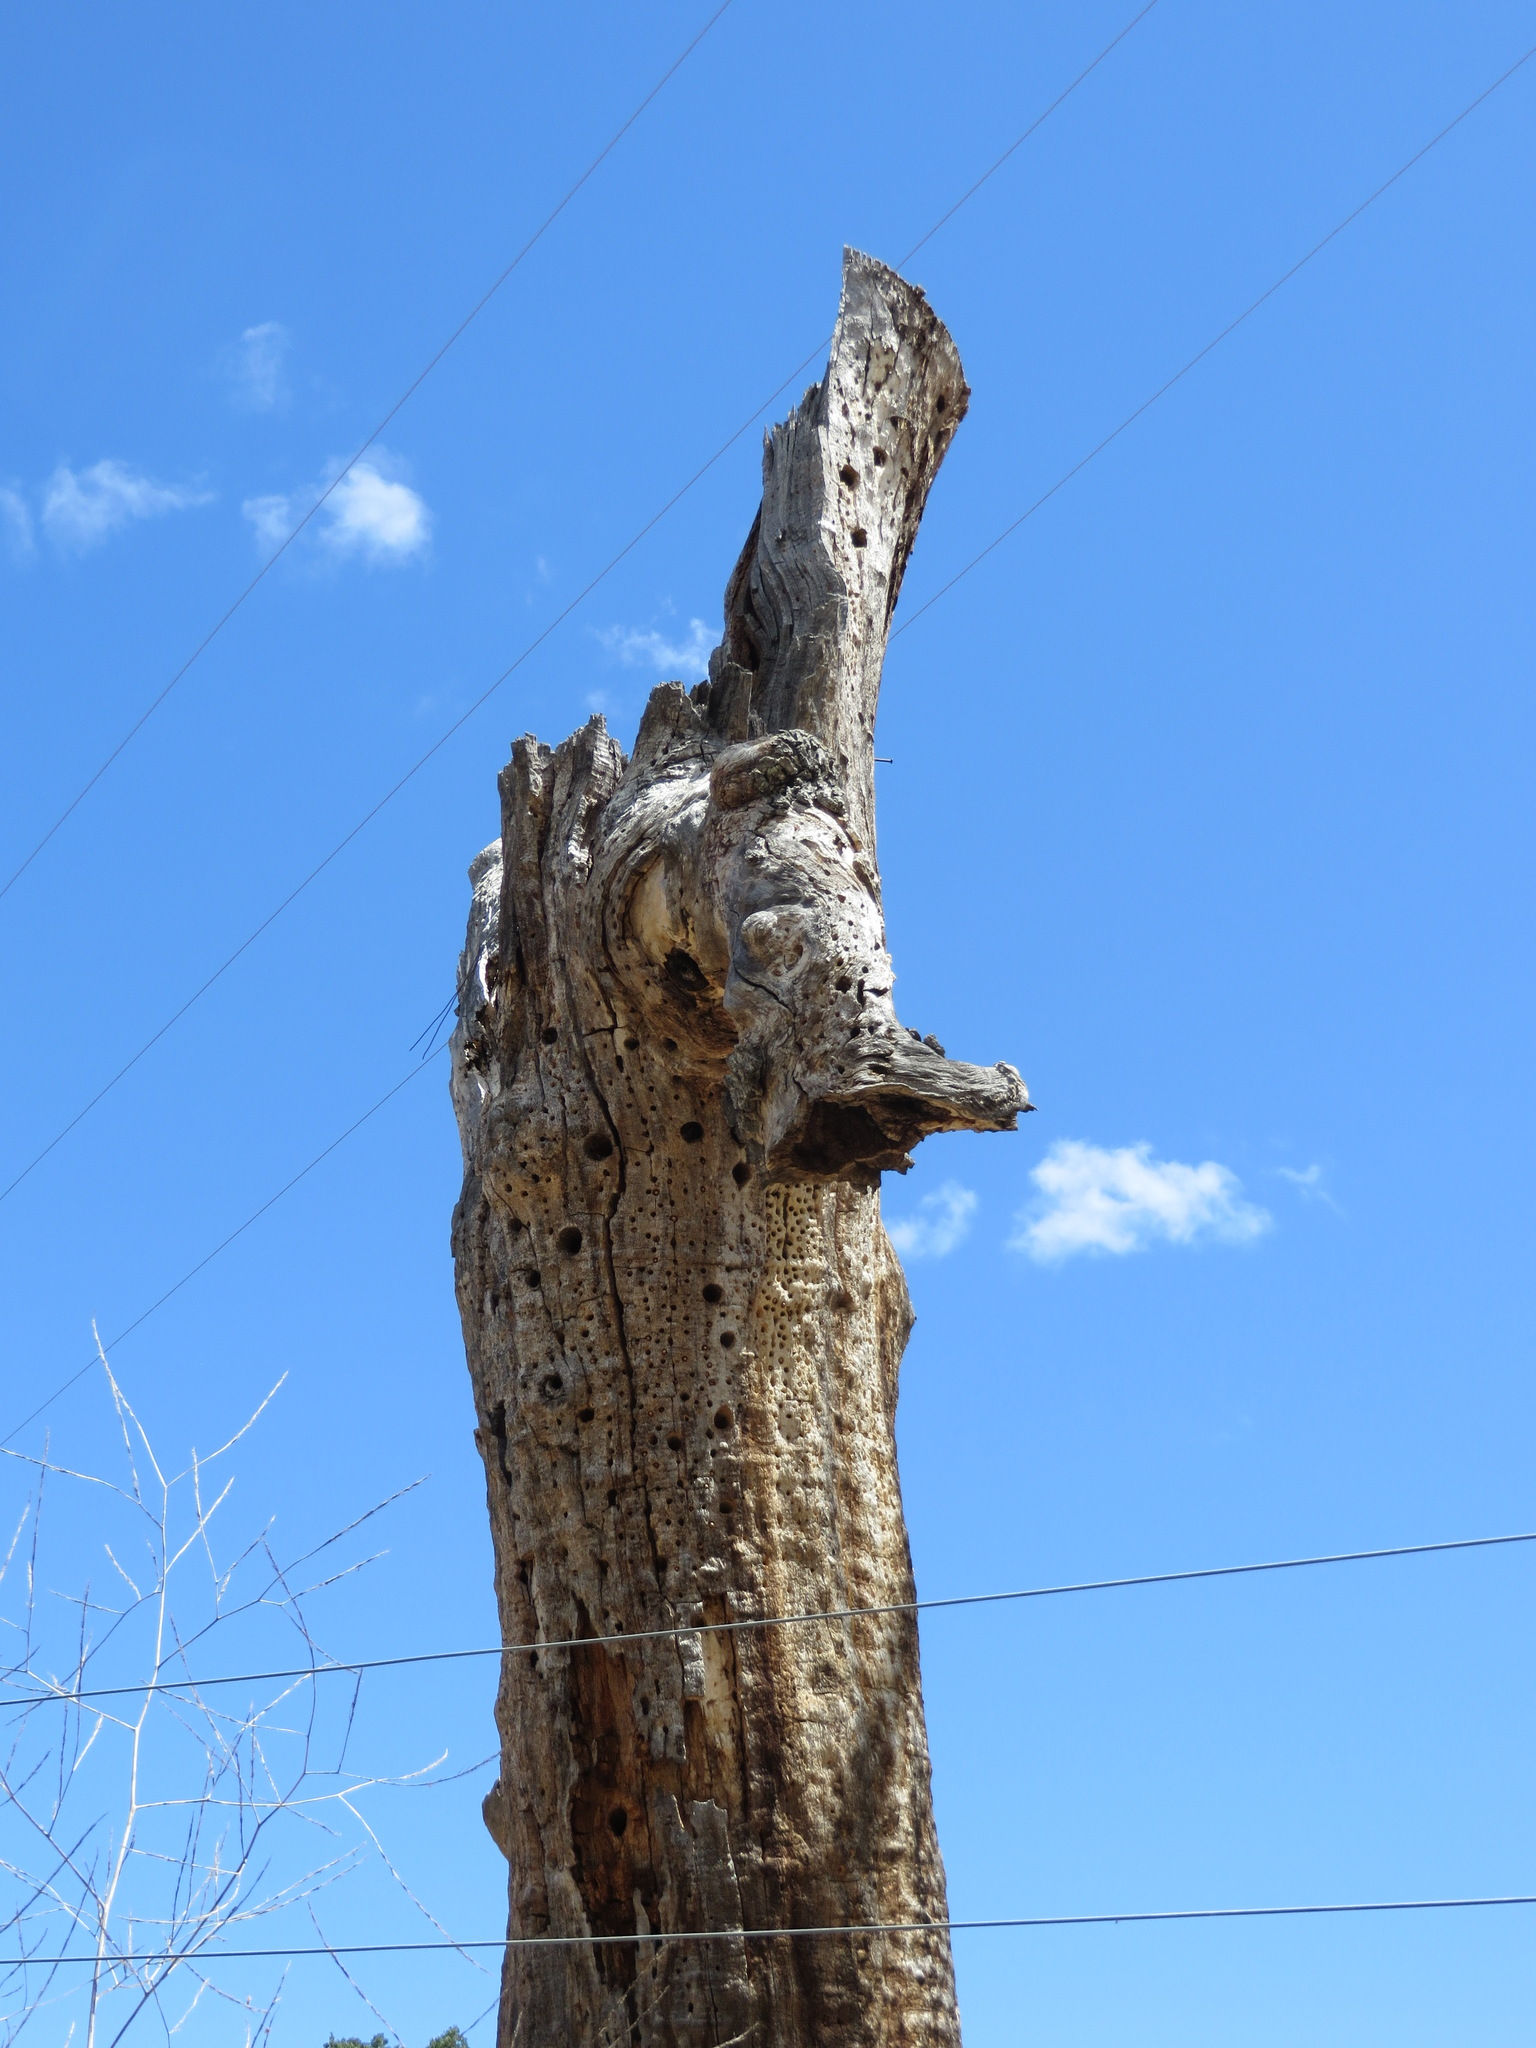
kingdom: Animalia
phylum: Chordata
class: Aves
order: Piciformes
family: Picidae
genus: Melanerpes
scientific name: Melanerpes formicivorus
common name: Acorn woodpecker
